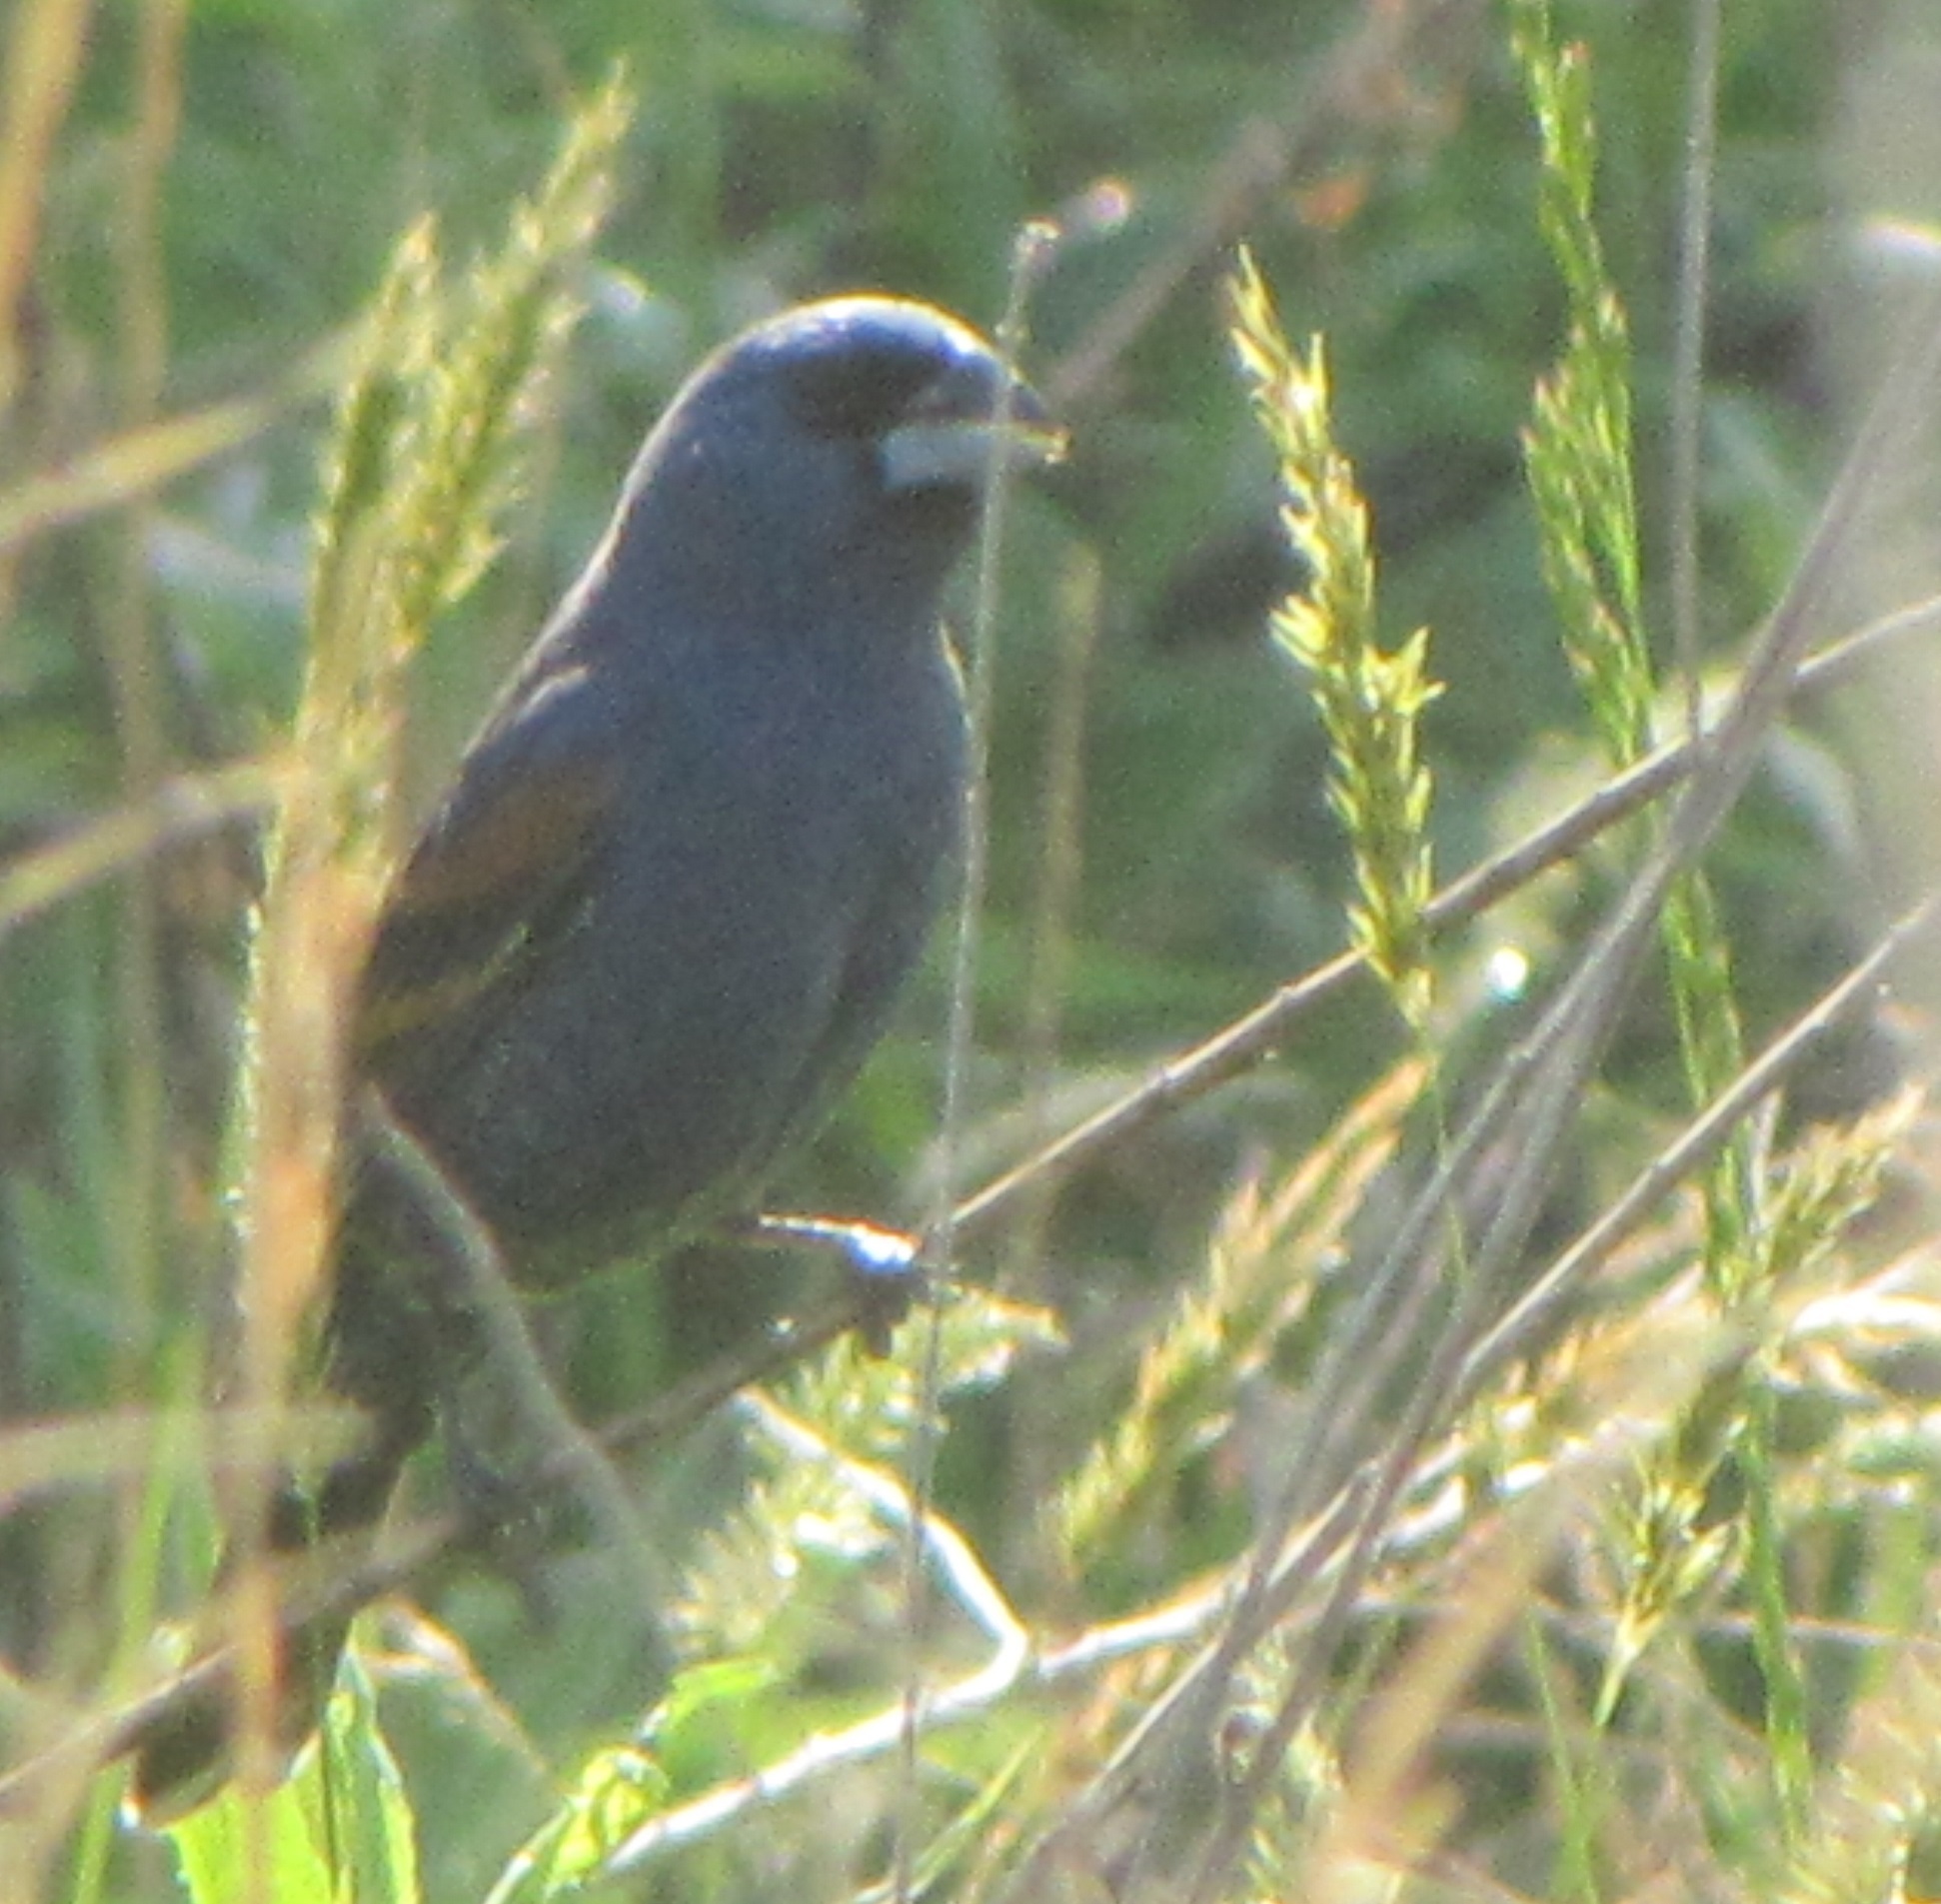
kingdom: Animalia
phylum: Chordata
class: Aves
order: Passeriformes
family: Cardinalidae
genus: Passerina
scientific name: Passerina caerulea
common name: Blue grosbeak
